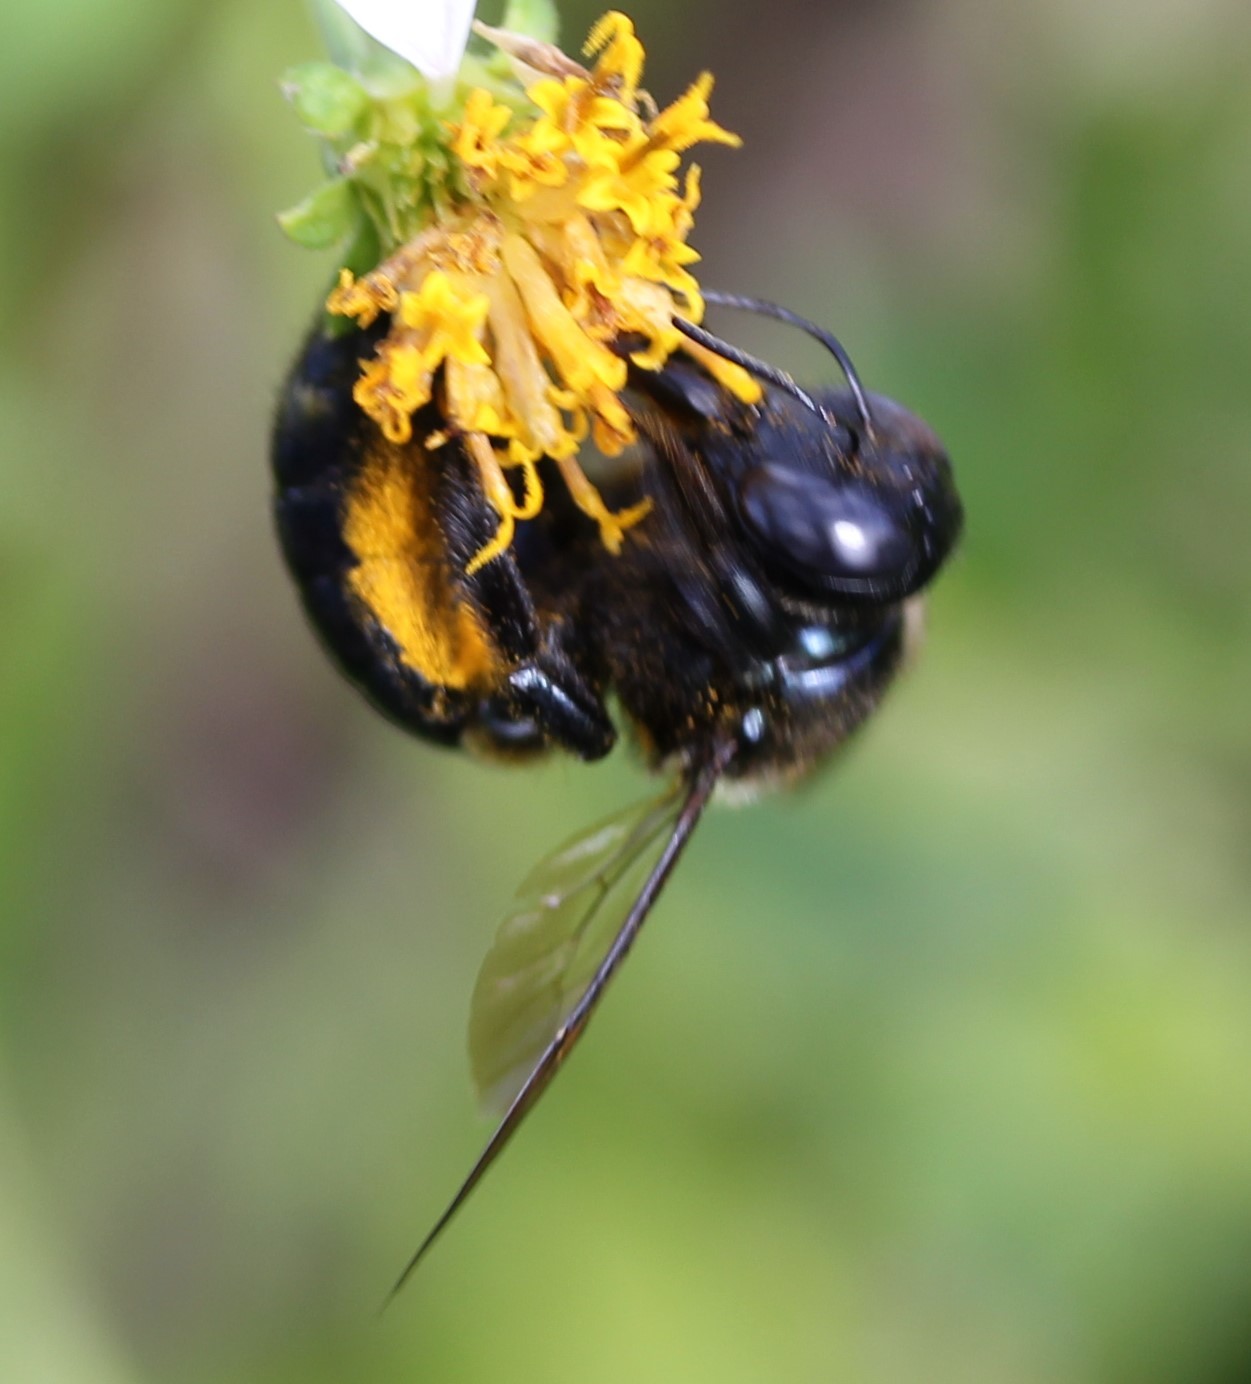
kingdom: Animalia
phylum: Arthropoda
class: Insecta
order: Hymenoptera
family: Apidae
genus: Xylocopa
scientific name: Xylocopa micans
